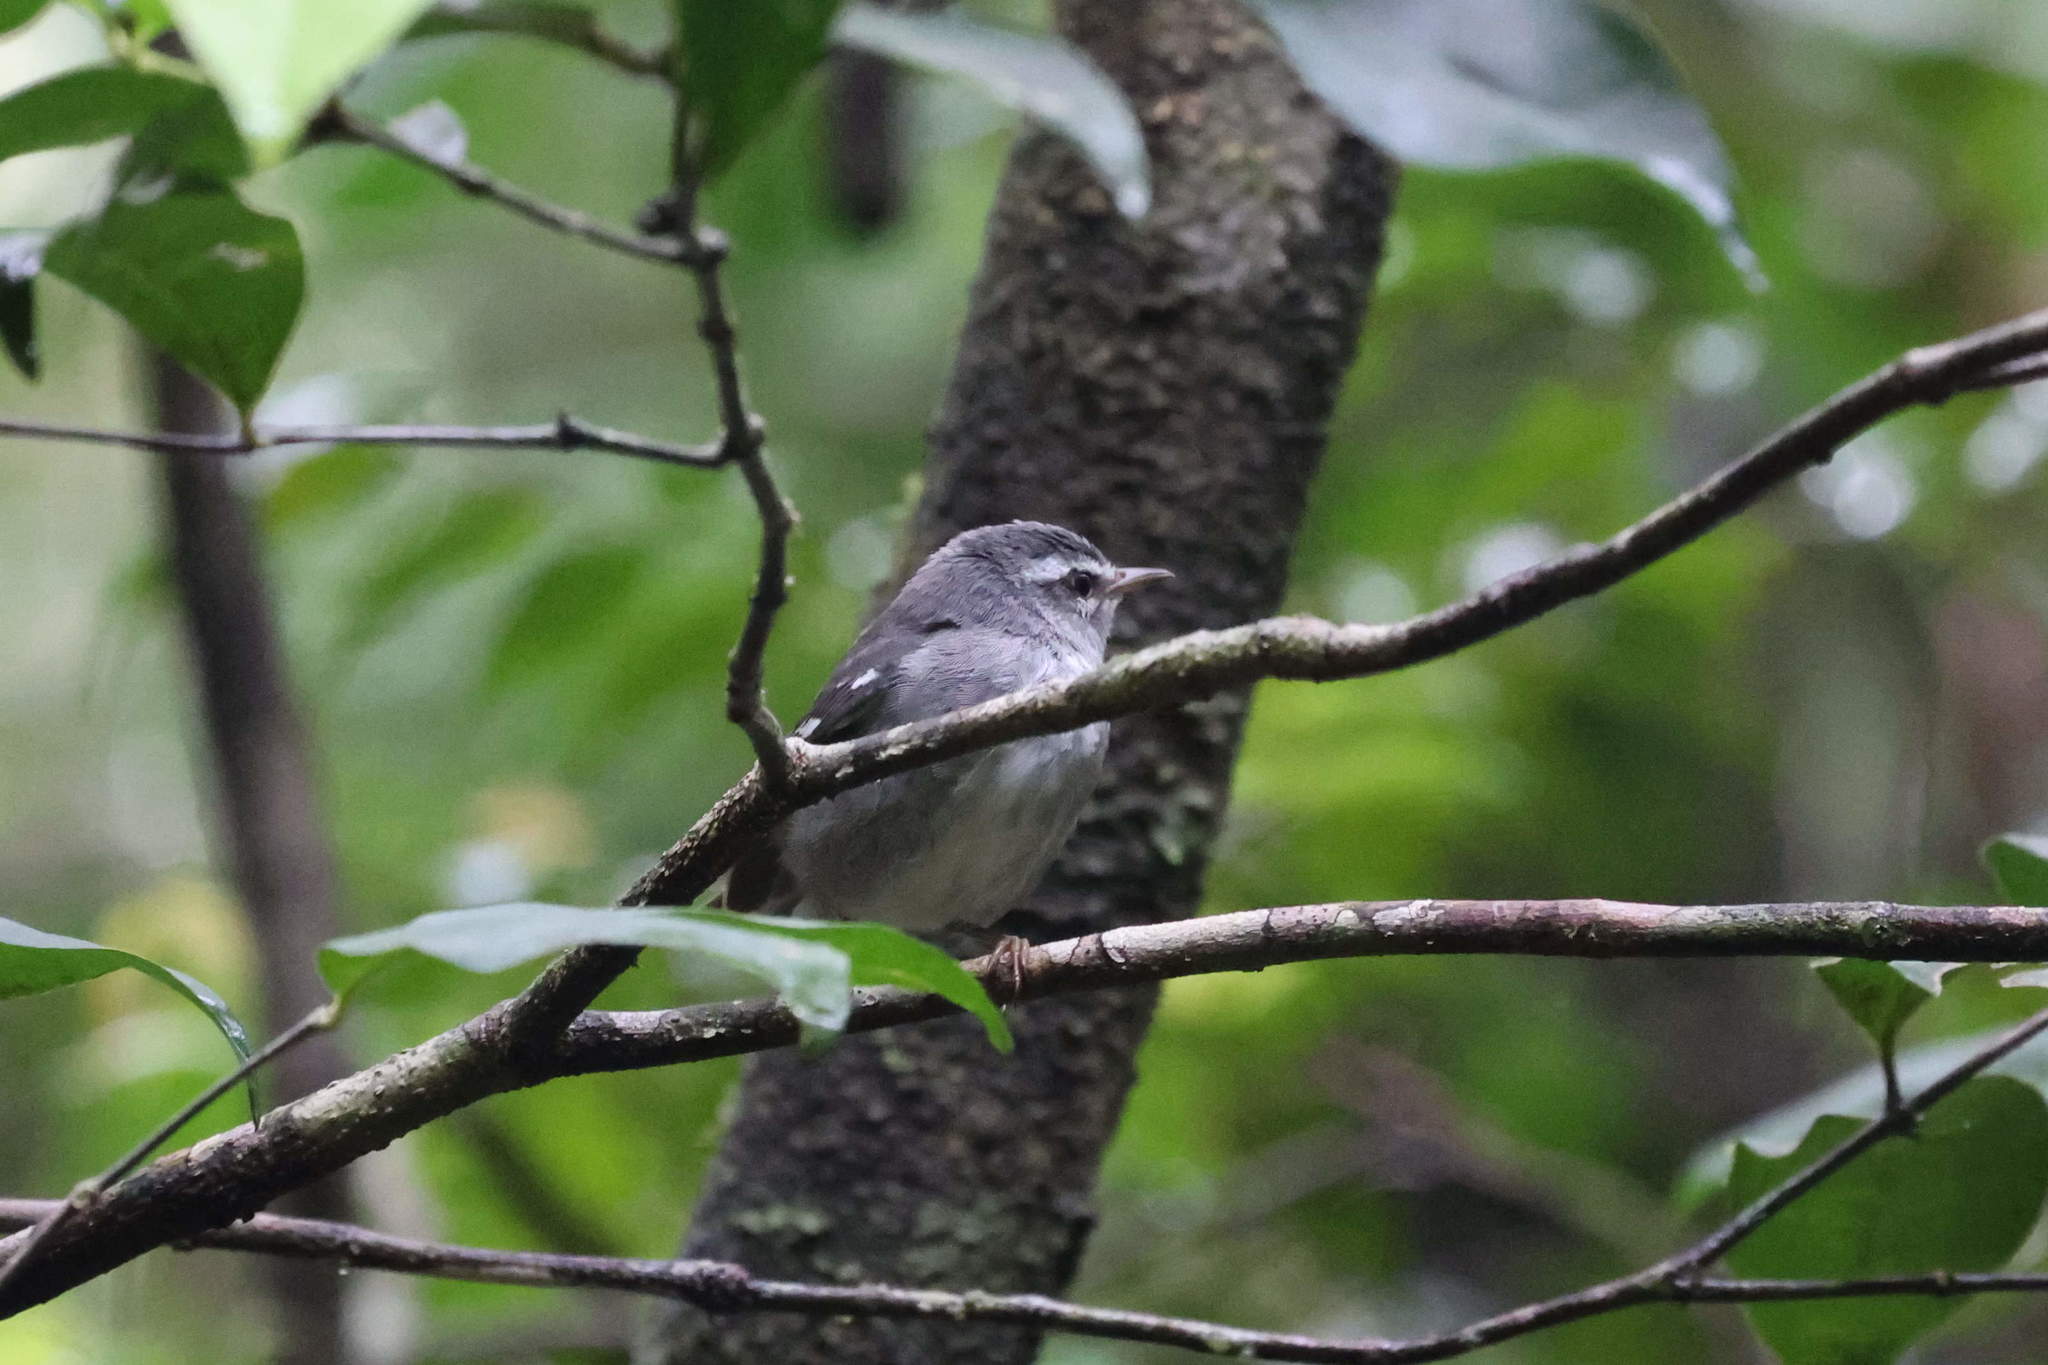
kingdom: Animalia
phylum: Chordata
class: Aves
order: Passeriformes
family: Parulidae
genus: Setophaga
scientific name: Setophaga plumbea
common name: Plumbeous warbler
